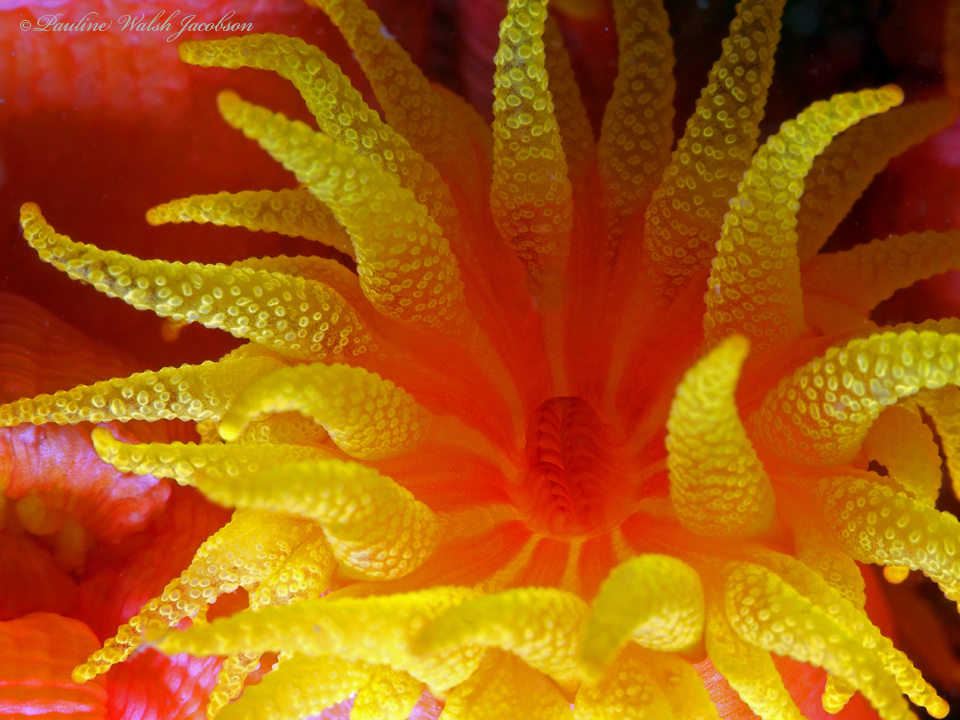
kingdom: Animalia
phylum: Cnidaria
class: Anthozoa
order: Scleractinia
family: Dendrophylliidae
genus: Tubastraea
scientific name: Tubastraea coccinea
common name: Orange cup coral
